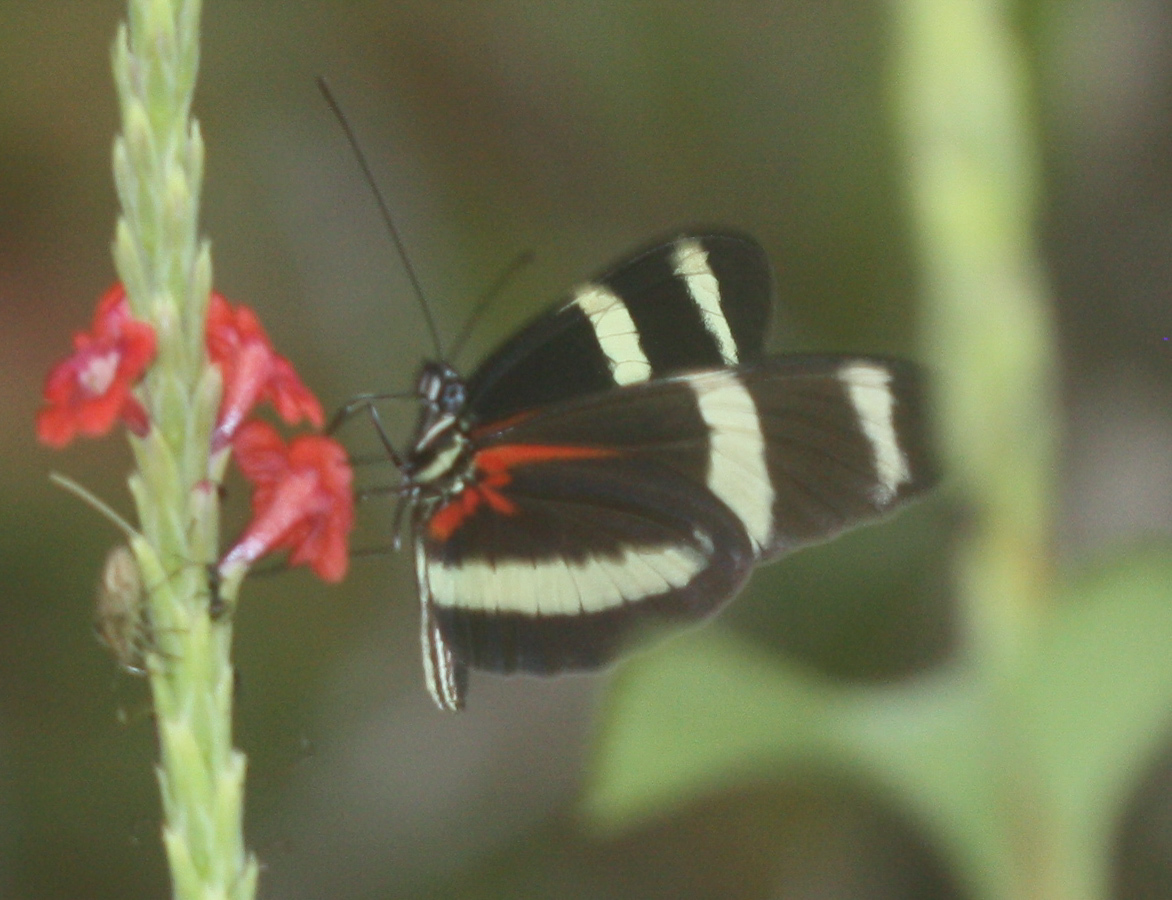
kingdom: Animalia
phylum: Arthropoda
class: Insecta
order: Lepidoptera
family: Nymphalidae
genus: Heliconius
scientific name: Heliconius pachinus
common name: Pachinus longwing
